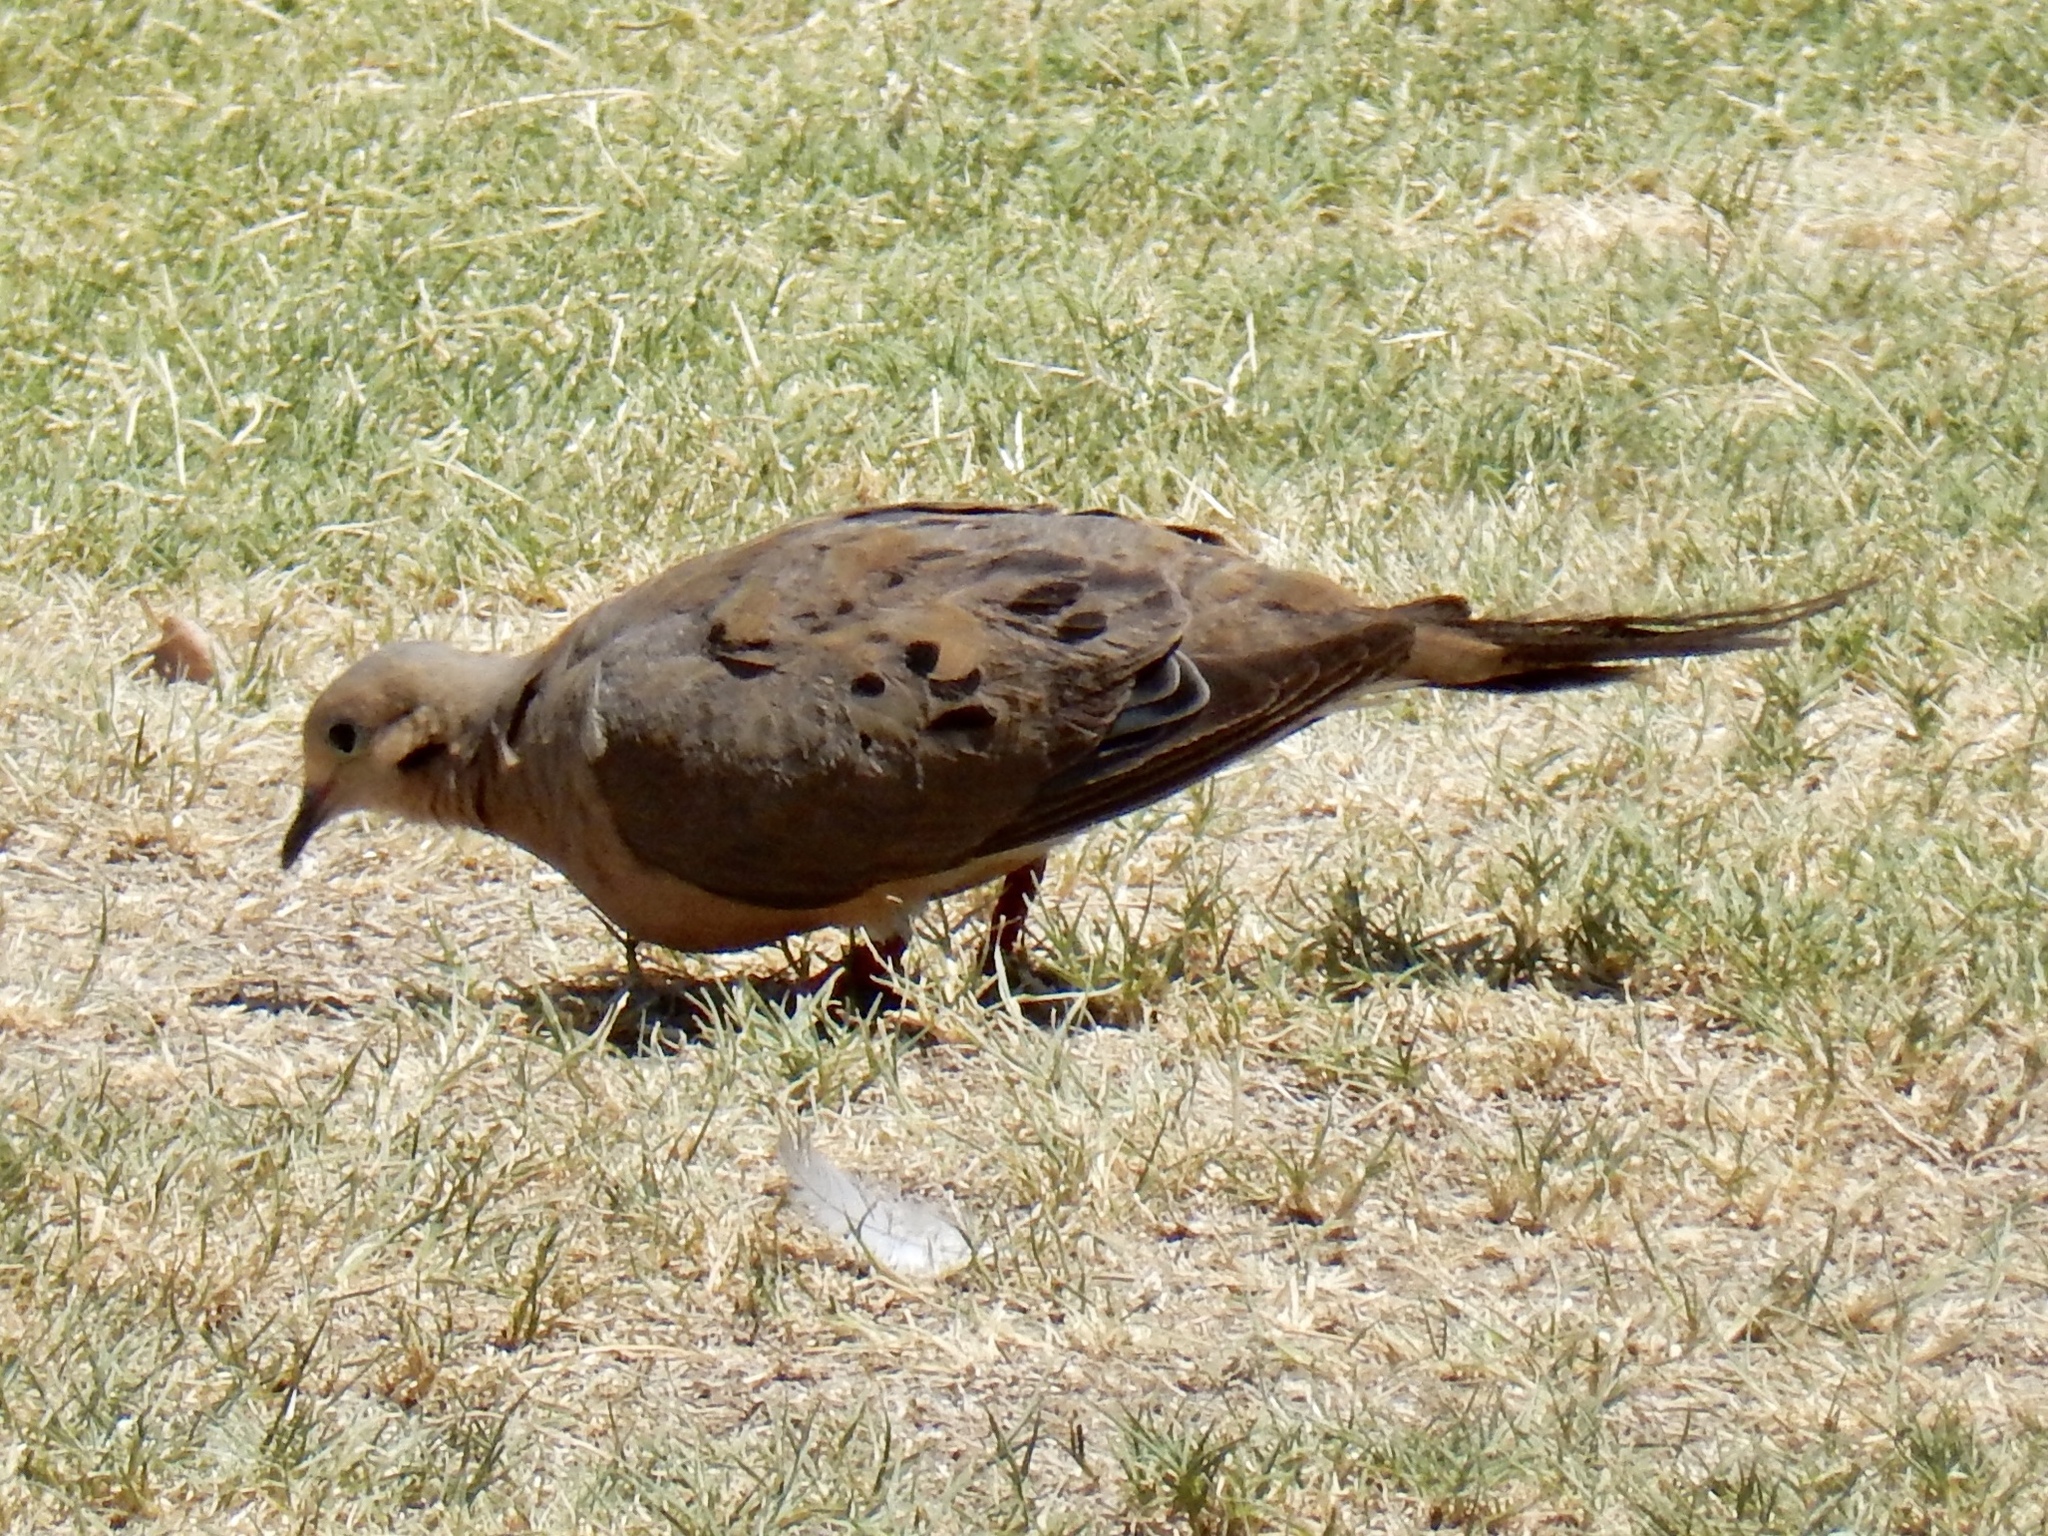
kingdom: Animalia
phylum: Chordata
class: Aves
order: Columbiformes
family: Columbidae
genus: Zenaida
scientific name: Zenaida macroura
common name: Mourning dove
